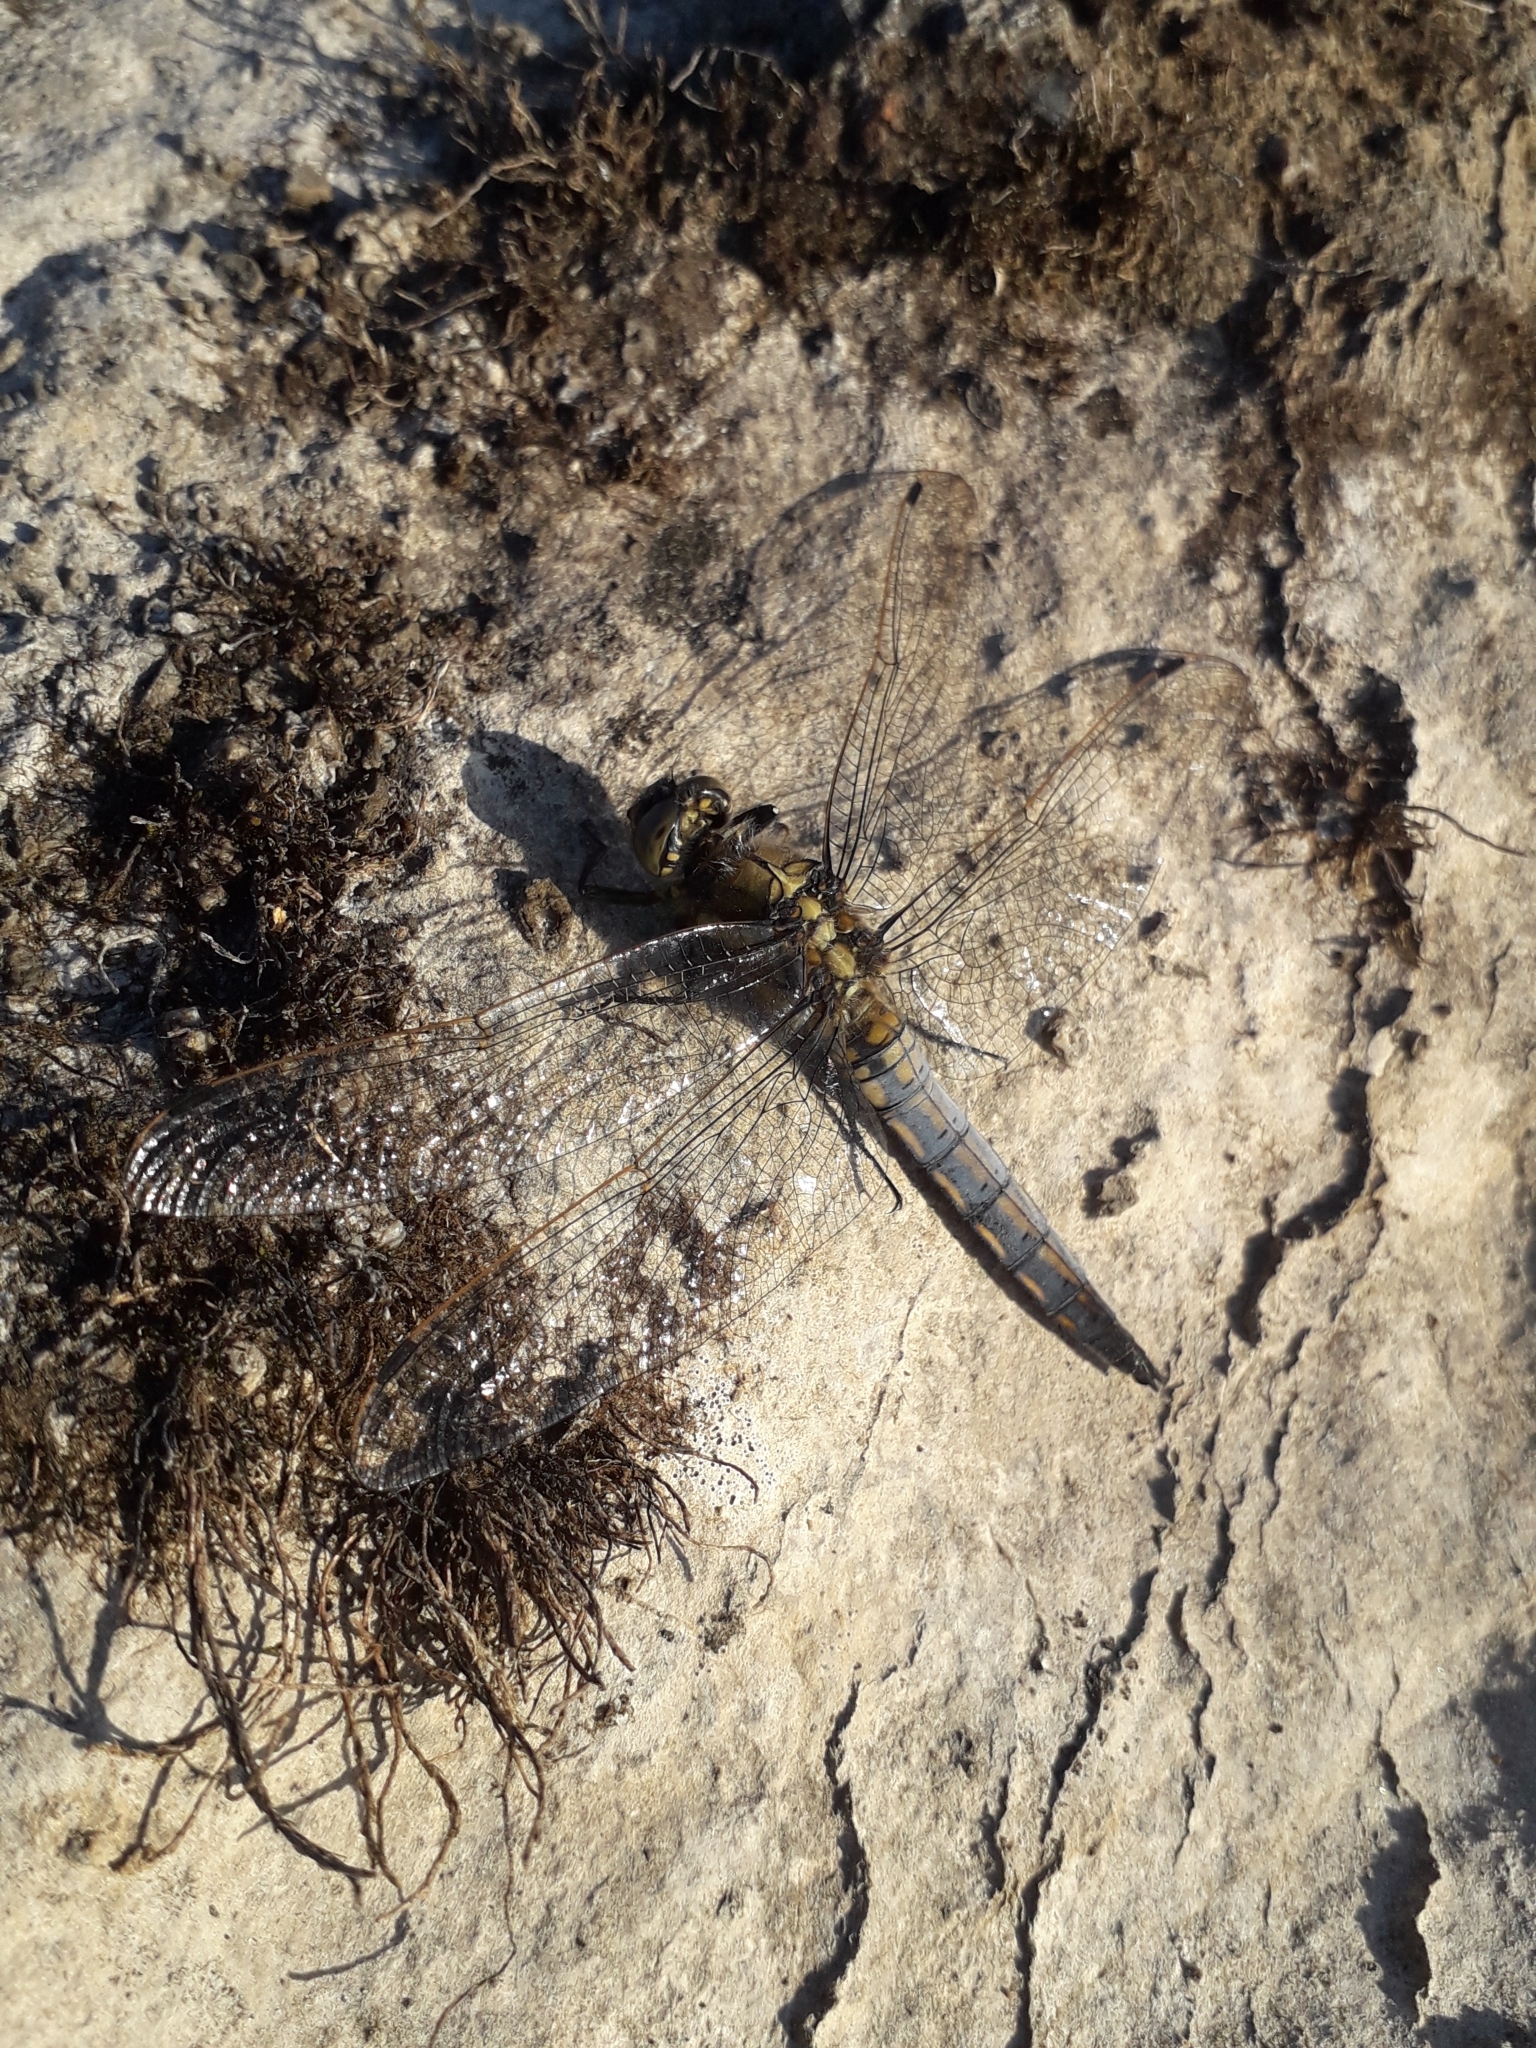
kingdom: Animalia
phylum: Arthropoda
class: Insecta
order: Odonata
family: Libellulidae
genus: Orthetrum
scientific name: Orthetrum cancellatum
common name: Black-tailed skimmer
